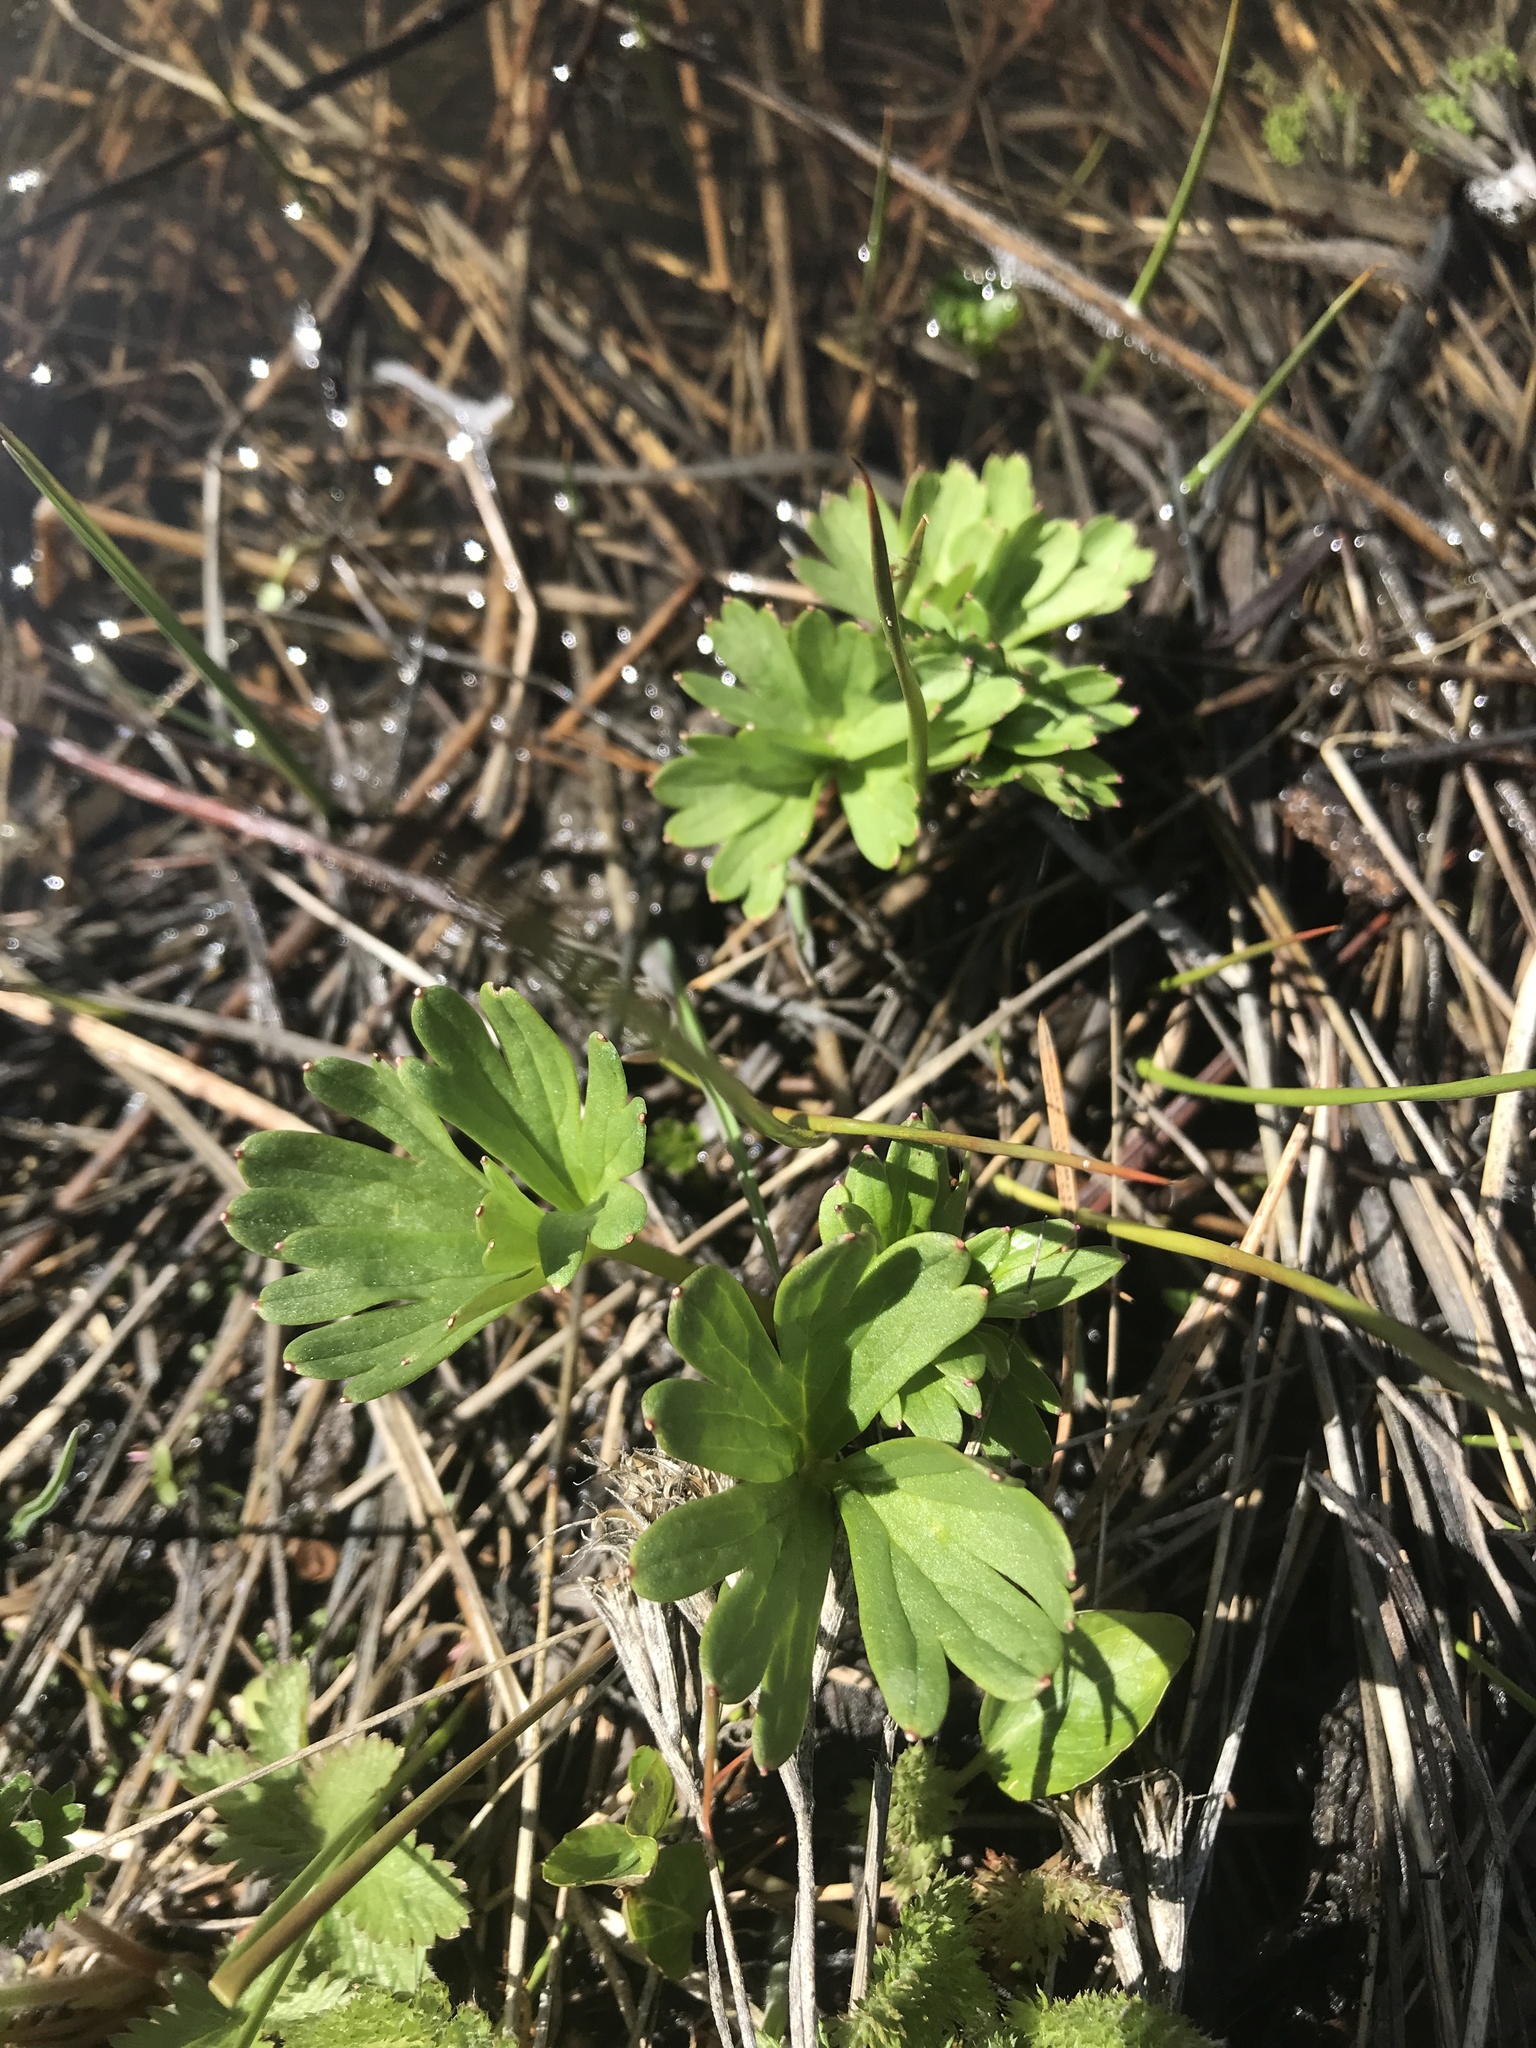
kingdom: Plantae
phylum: Tracheophyta
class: Magnoliopsida
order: Ranunculales
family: Ranunculaceae
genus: Delphinium
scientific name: Delphinium viridescens
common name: Wenatchee larkspur
